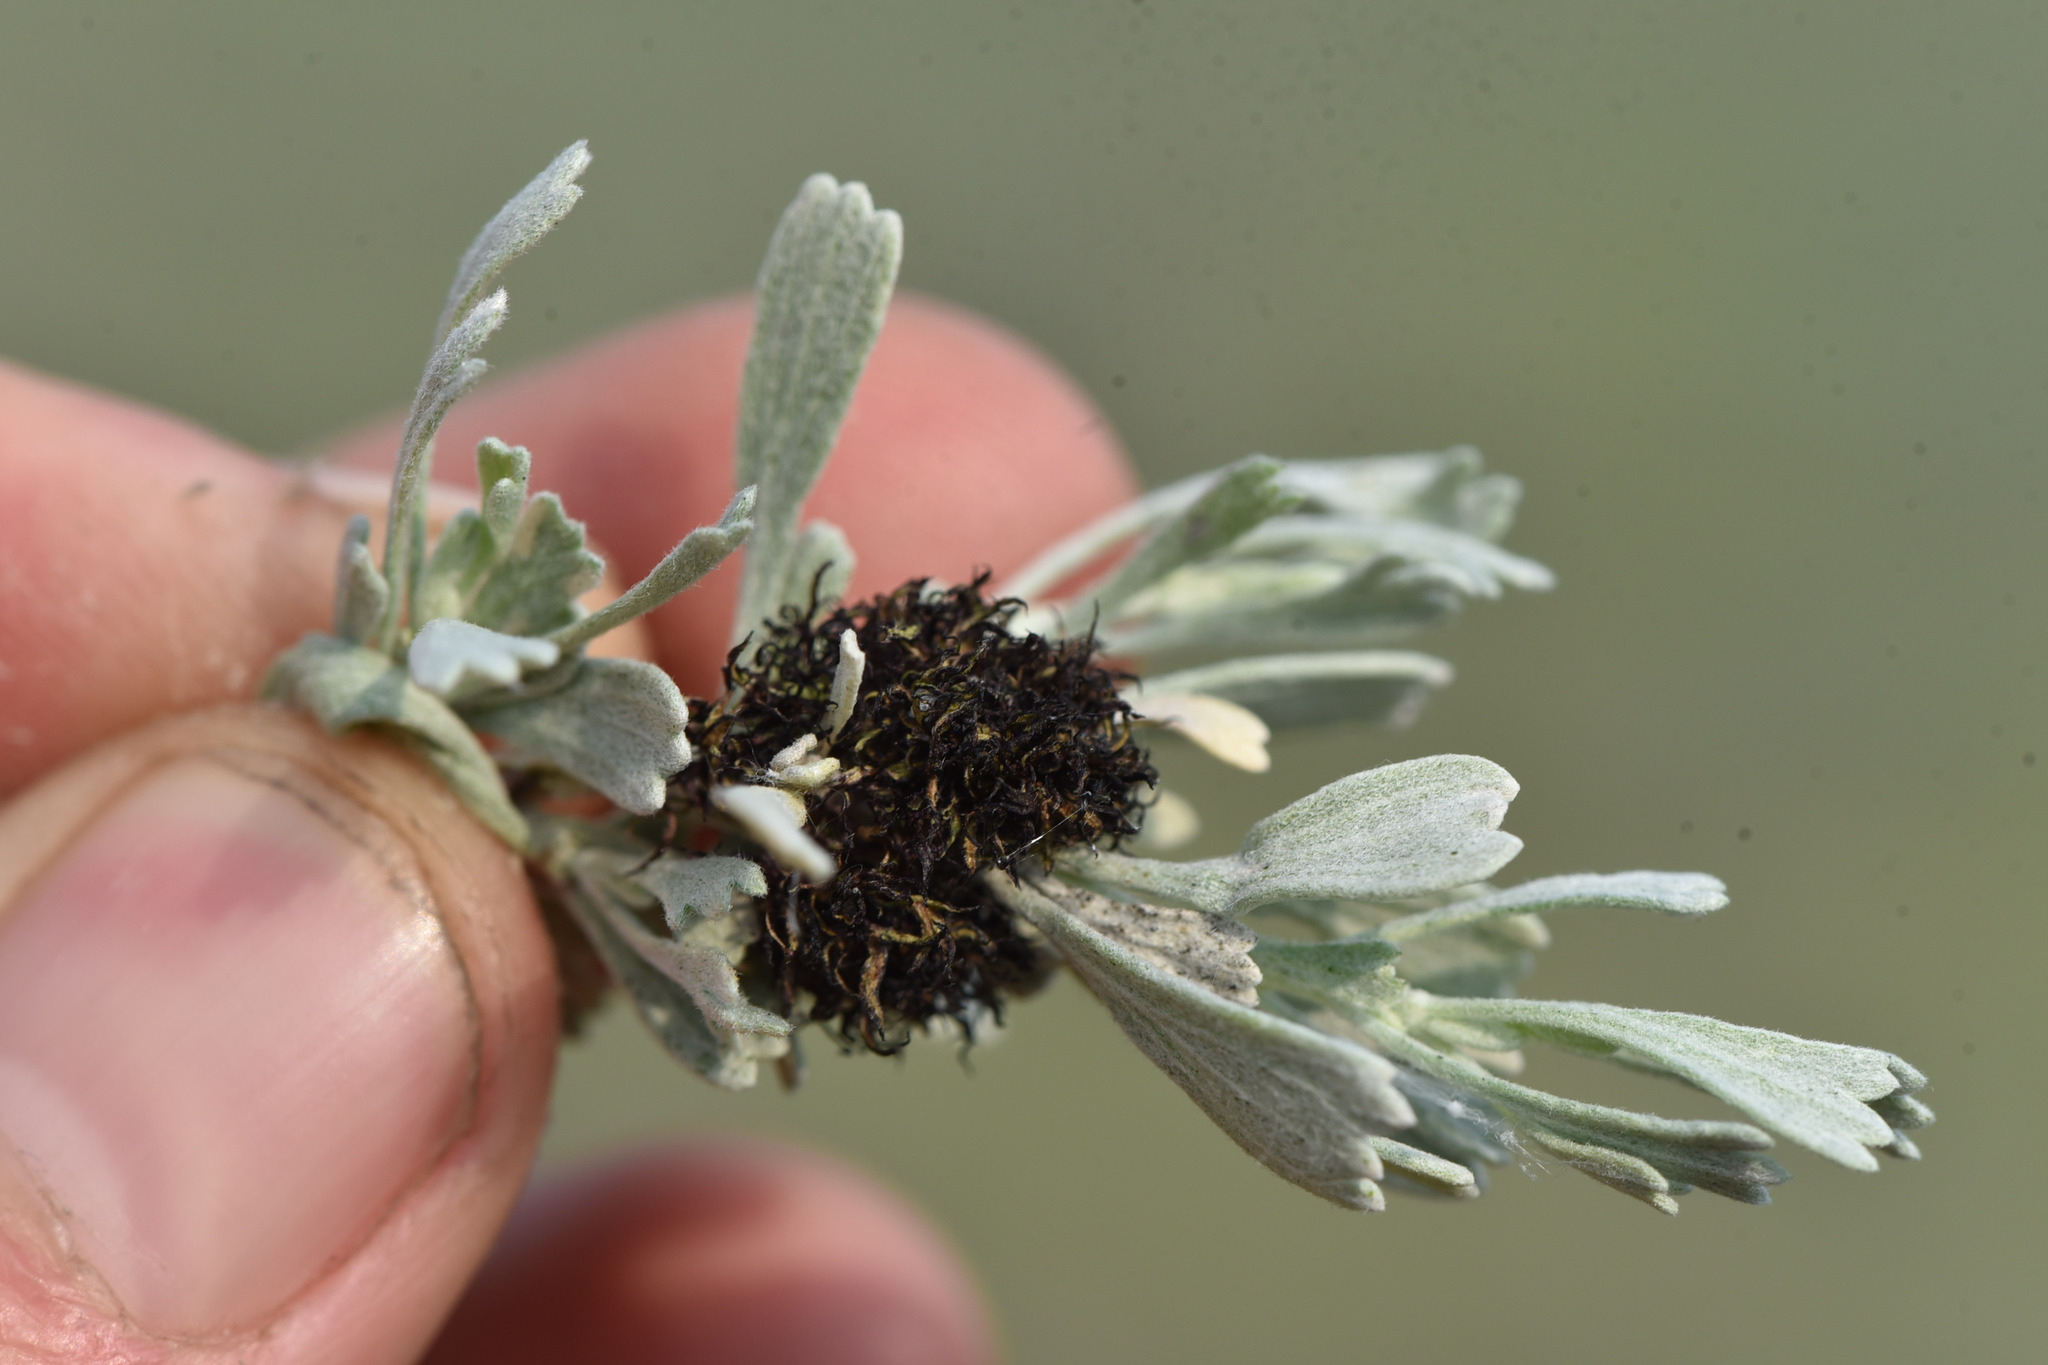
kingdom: Plantae
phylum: Tracheophyta
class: Magnoliopsida
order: Asterales
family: Asteraceae
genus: Artemisia
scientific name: Artemisia tridentata
